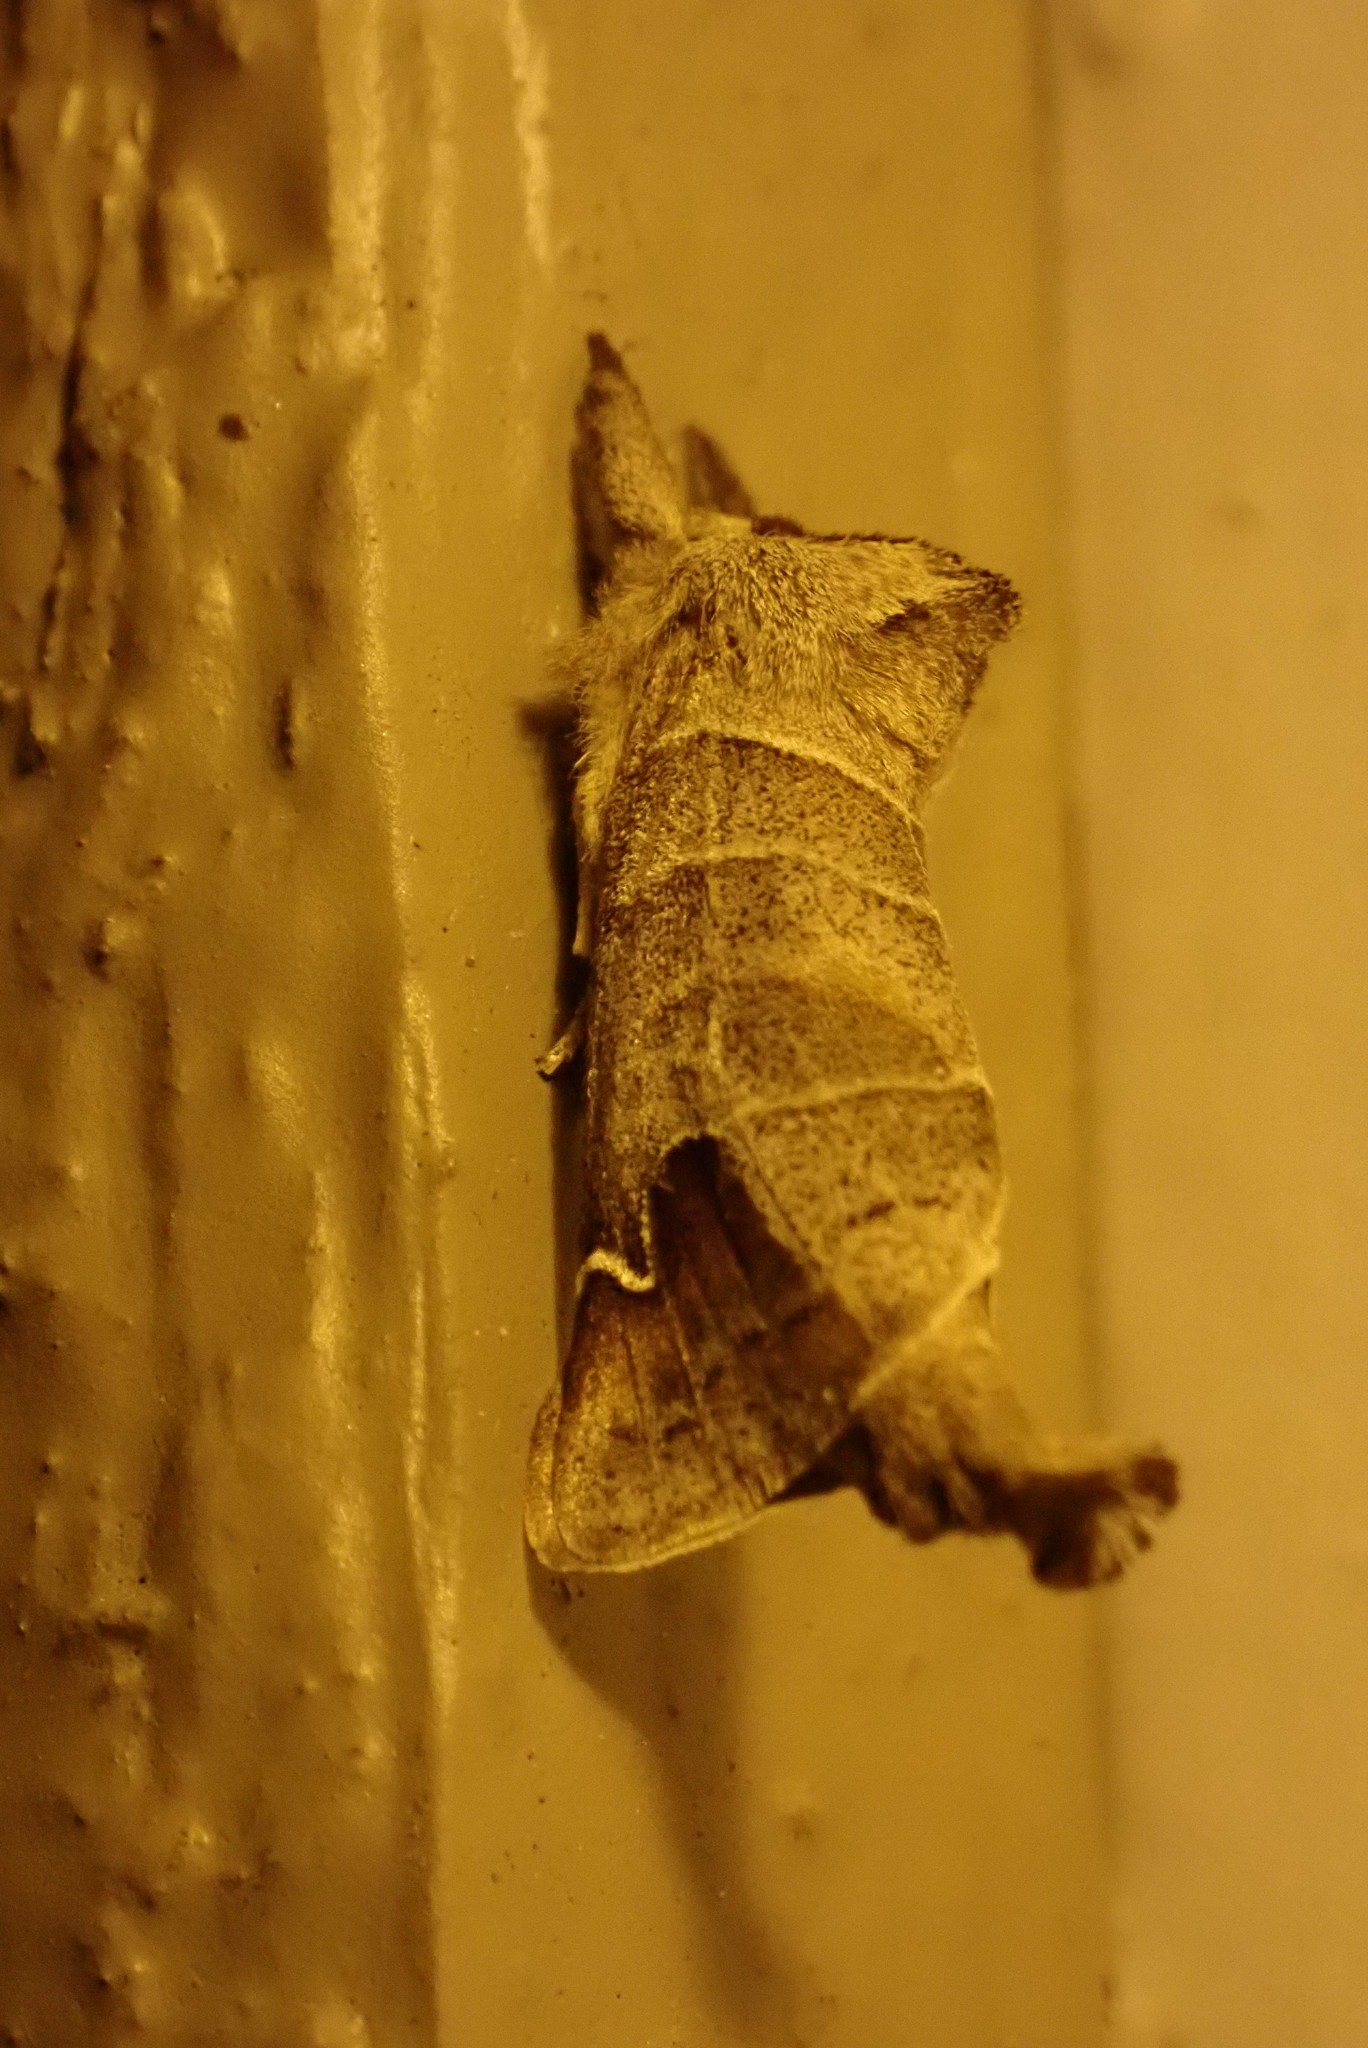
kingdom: Animalia
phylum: Arthropoda
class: Insecta
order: Lepidoptera
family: Notodontidae
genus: Clostera
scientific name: Clostera albosigma
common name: Sigmoid prominent
